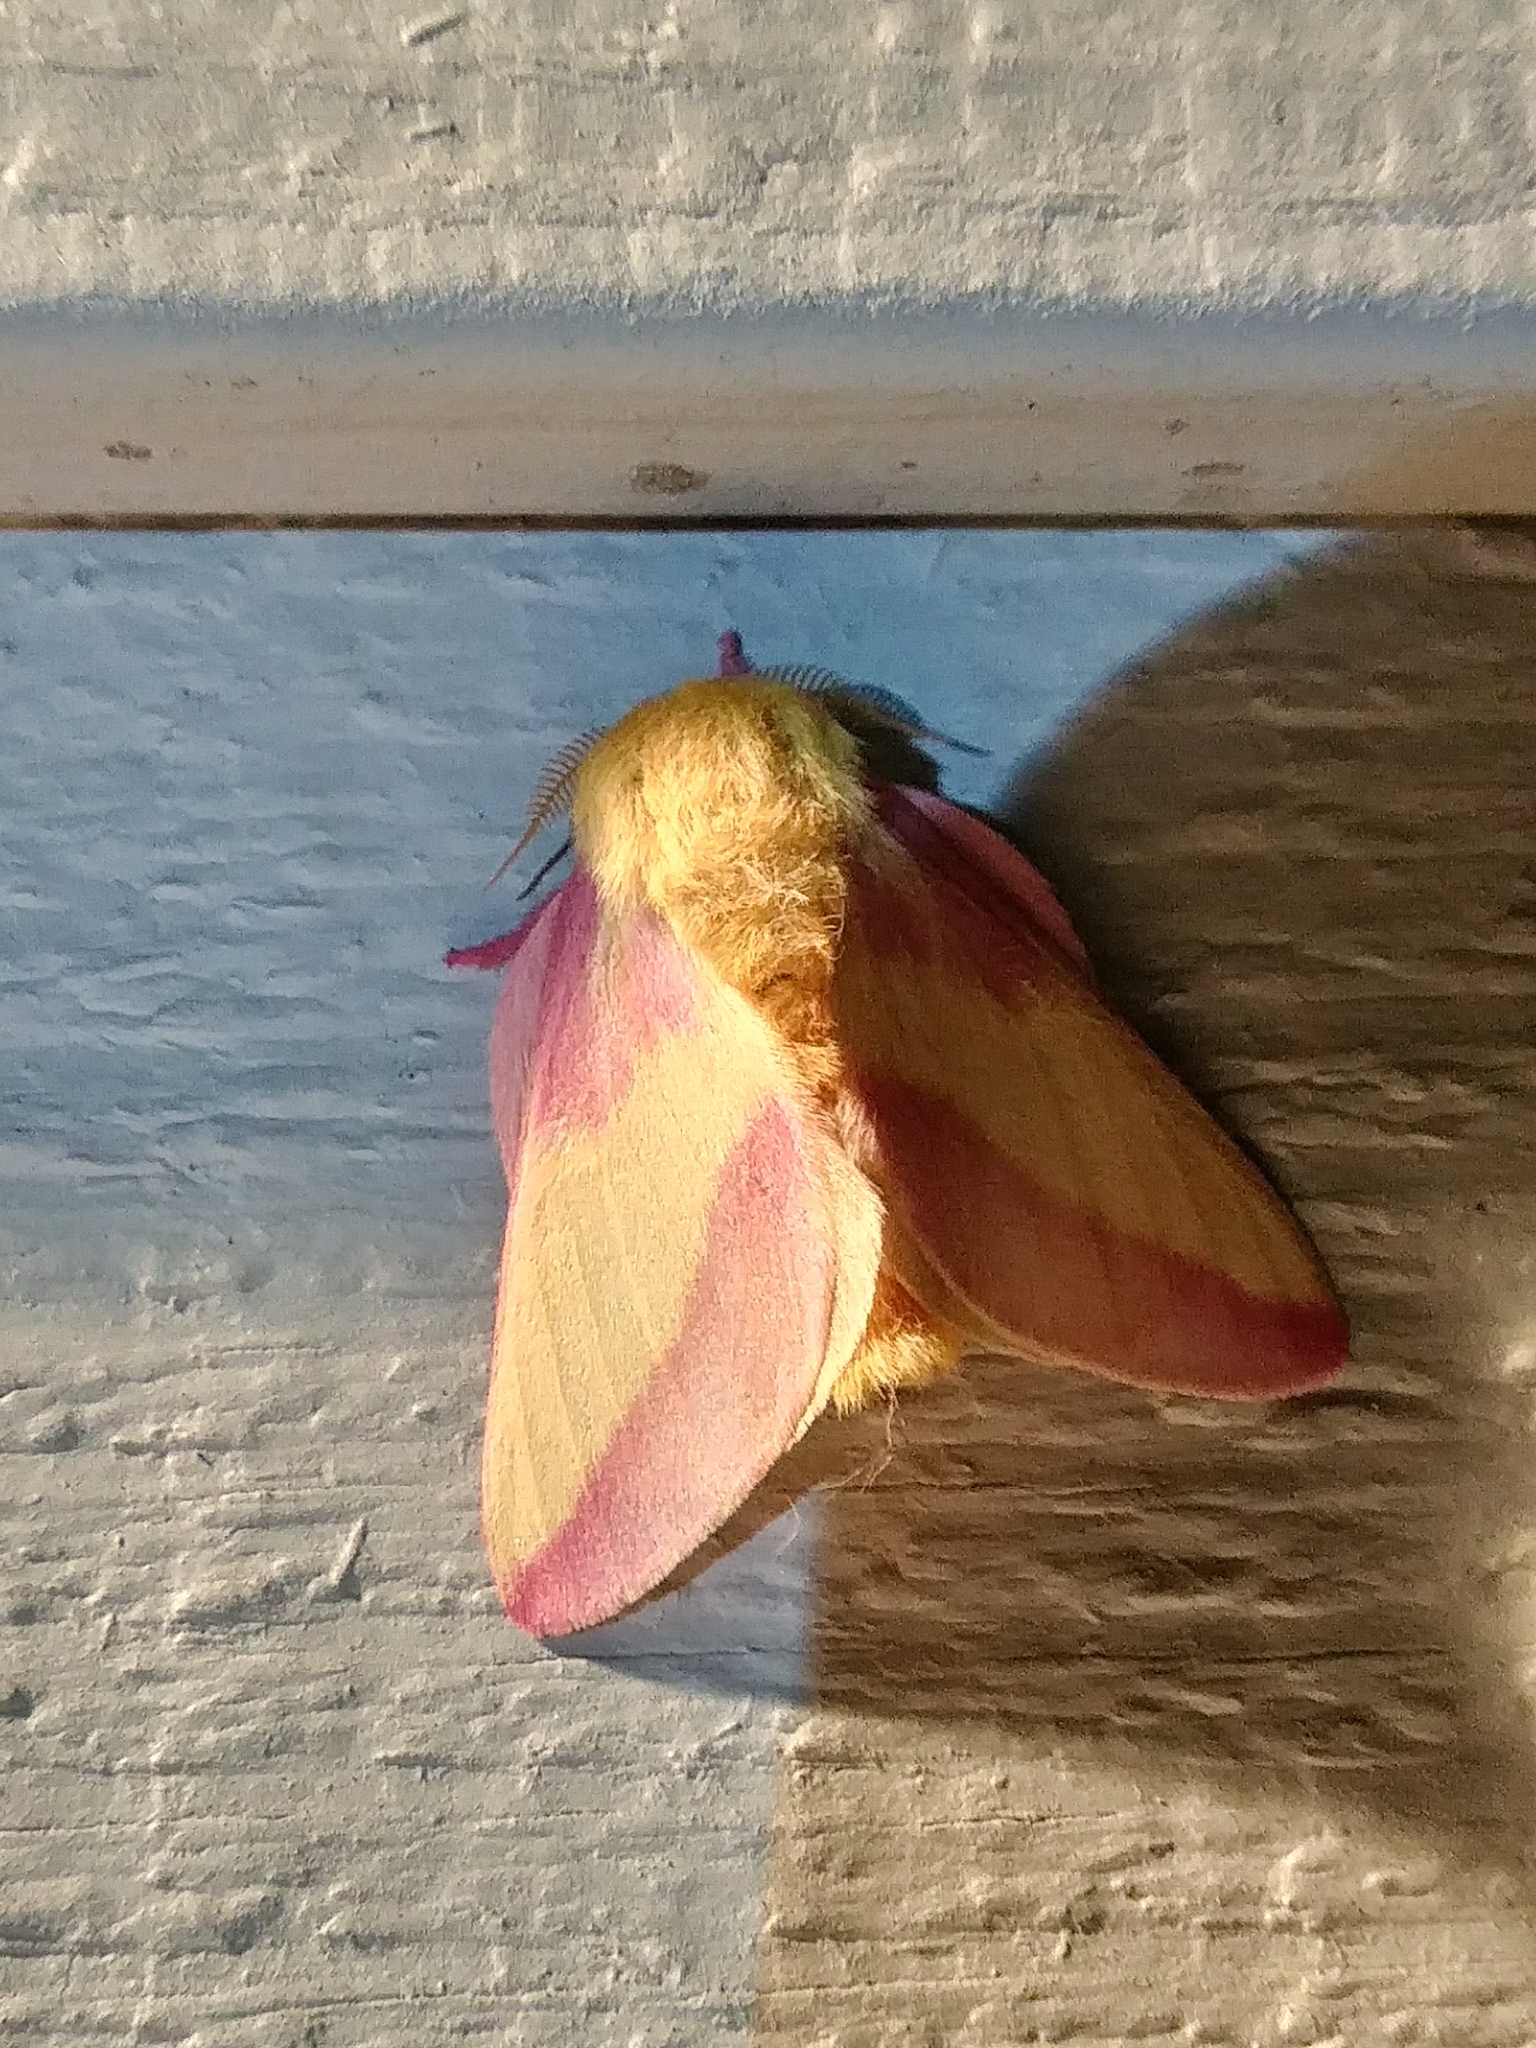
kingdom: Animalia
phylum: Arthropoda
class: Insecta
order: Lepidoptera
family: Saturniidae
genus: Dryocampa
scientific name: Dryocampa rubicunda
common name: Rosy maple moth
